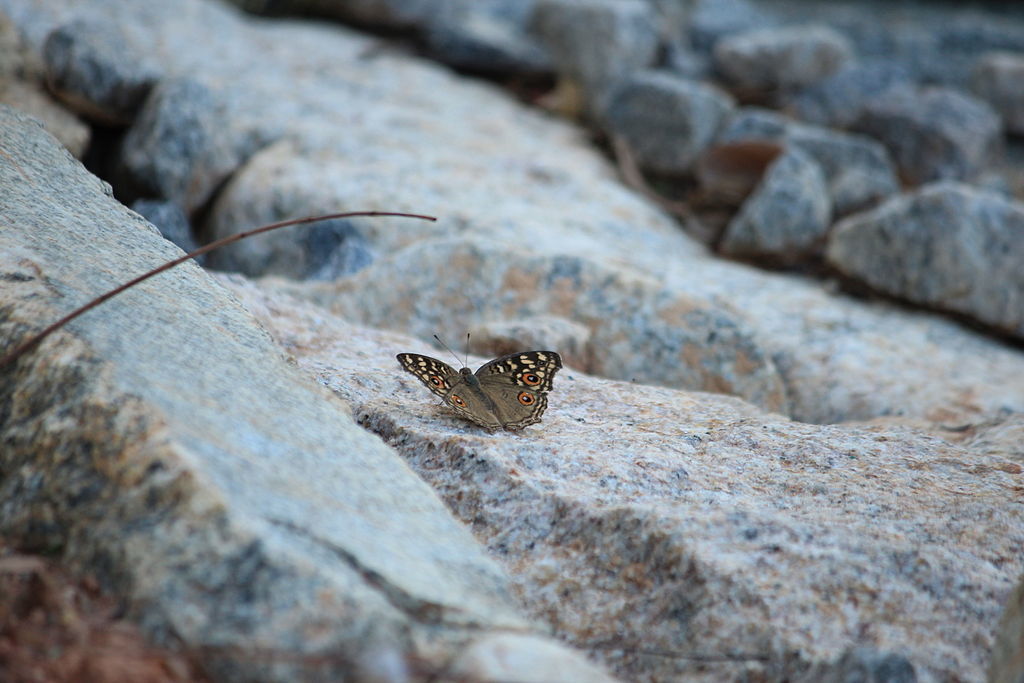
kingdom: Animalia
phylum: Arthropoda
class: Insecta
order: Lepidoptera
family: Nymphalidae
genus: Junonia
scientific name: Junonia lemonias
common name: Lemon pansy
